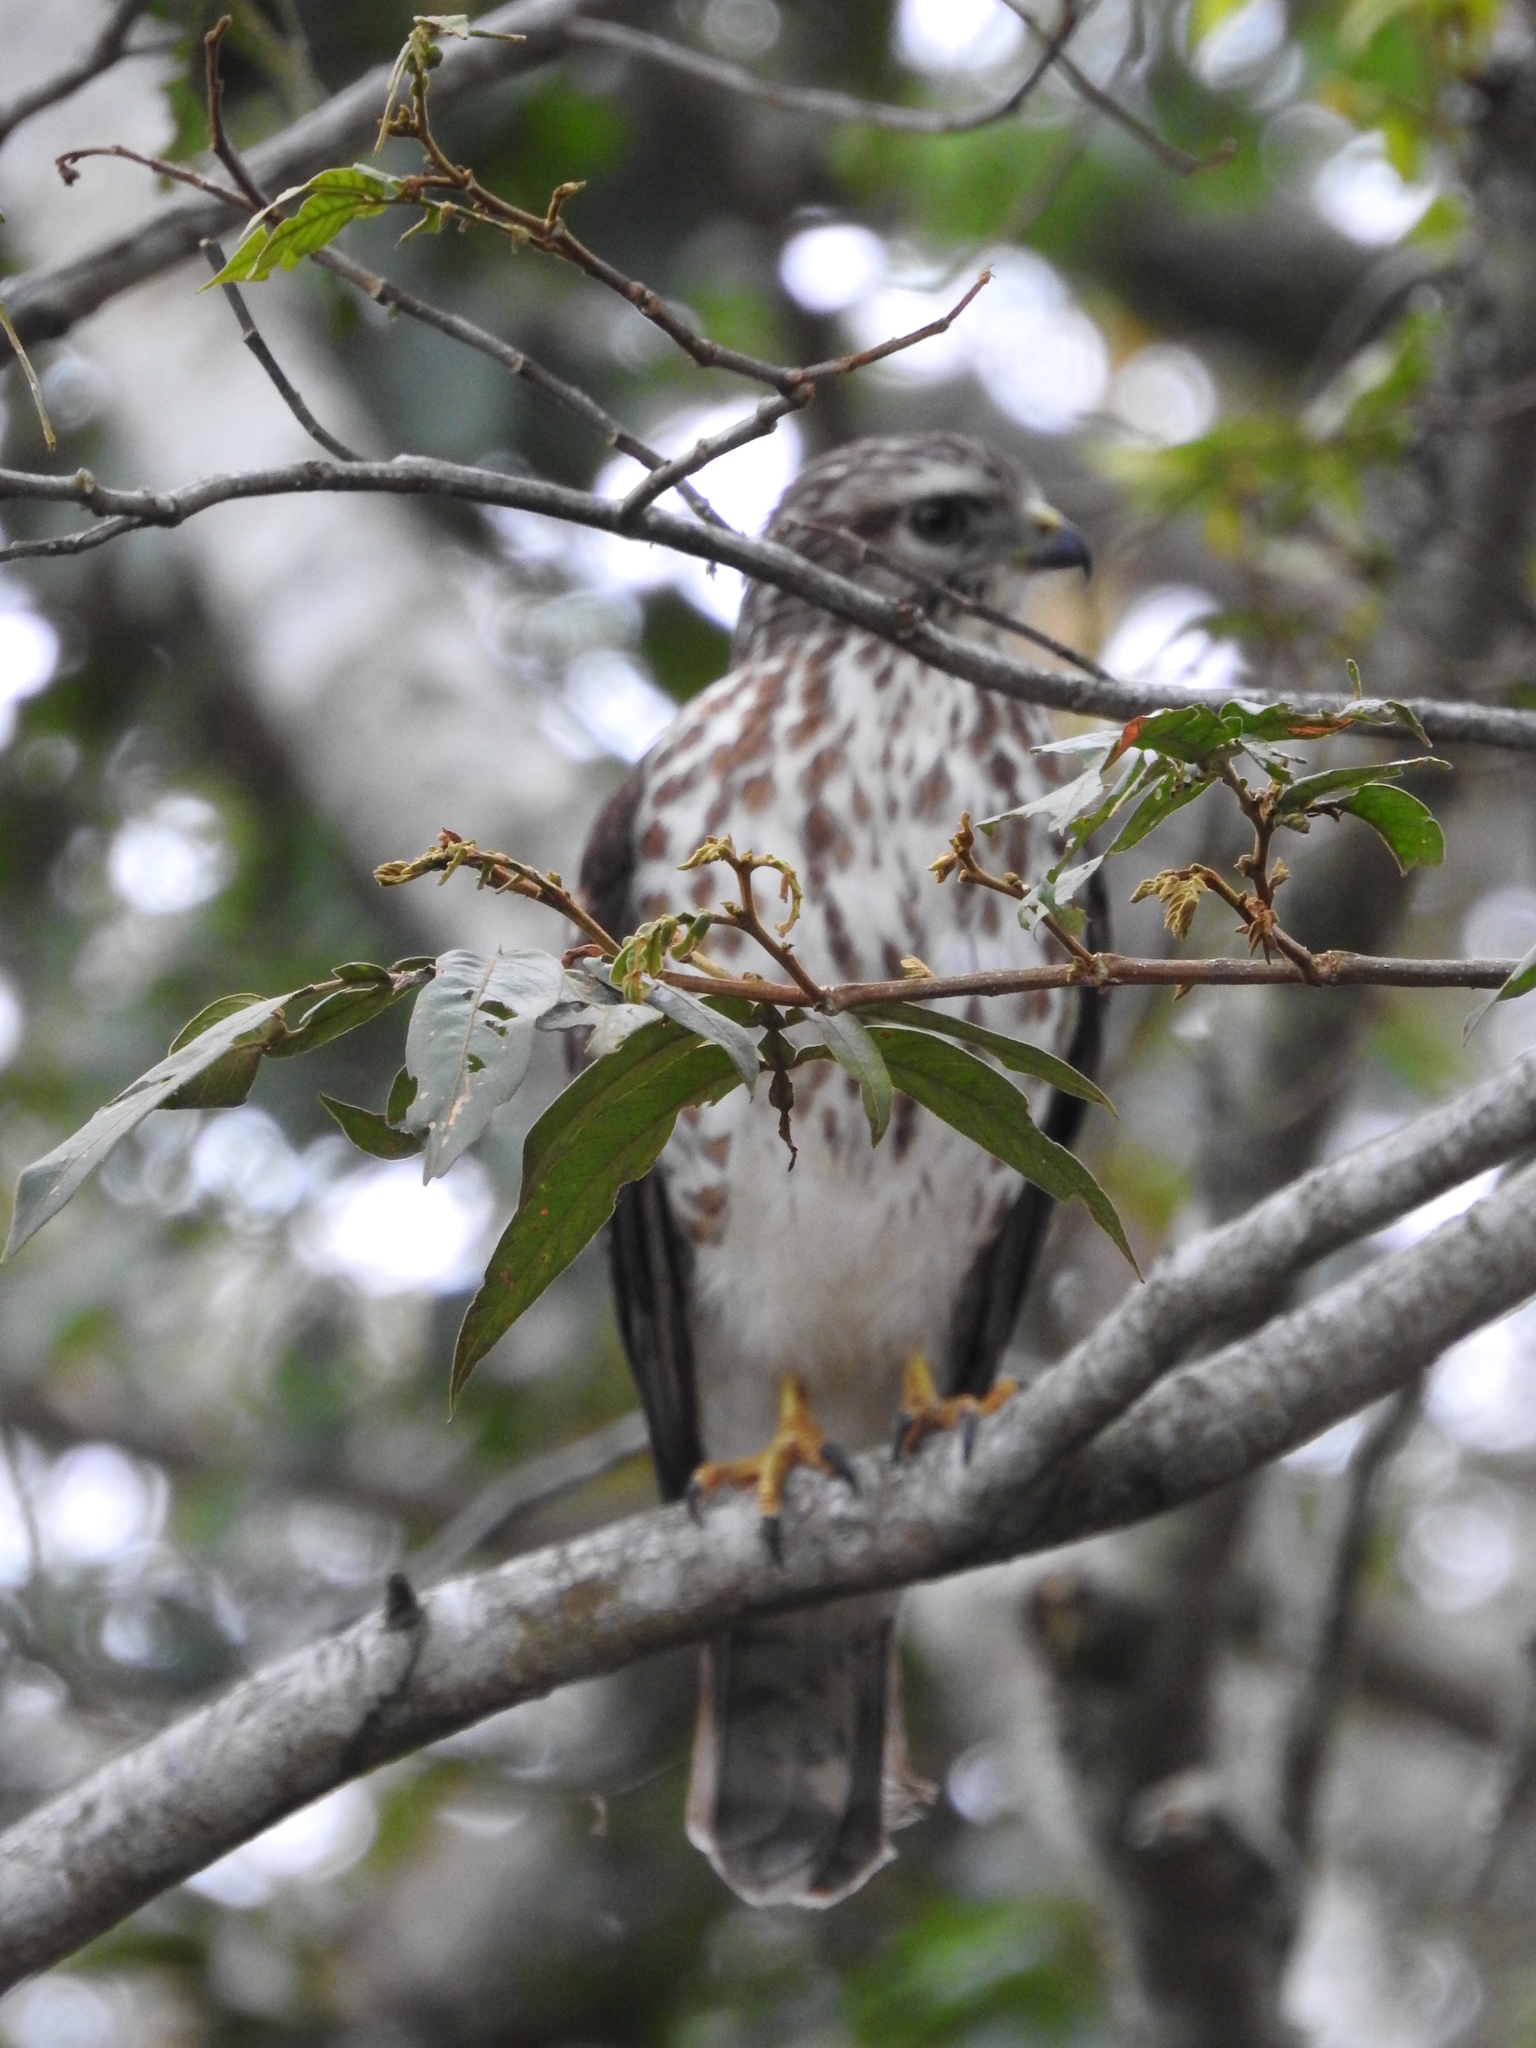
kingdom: Animalia
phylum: Chordata
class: Aves
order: Accipitriformes
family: Accipitridae
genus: Buteo
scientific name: Buteo platypterus
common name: Broad-winged hawk
